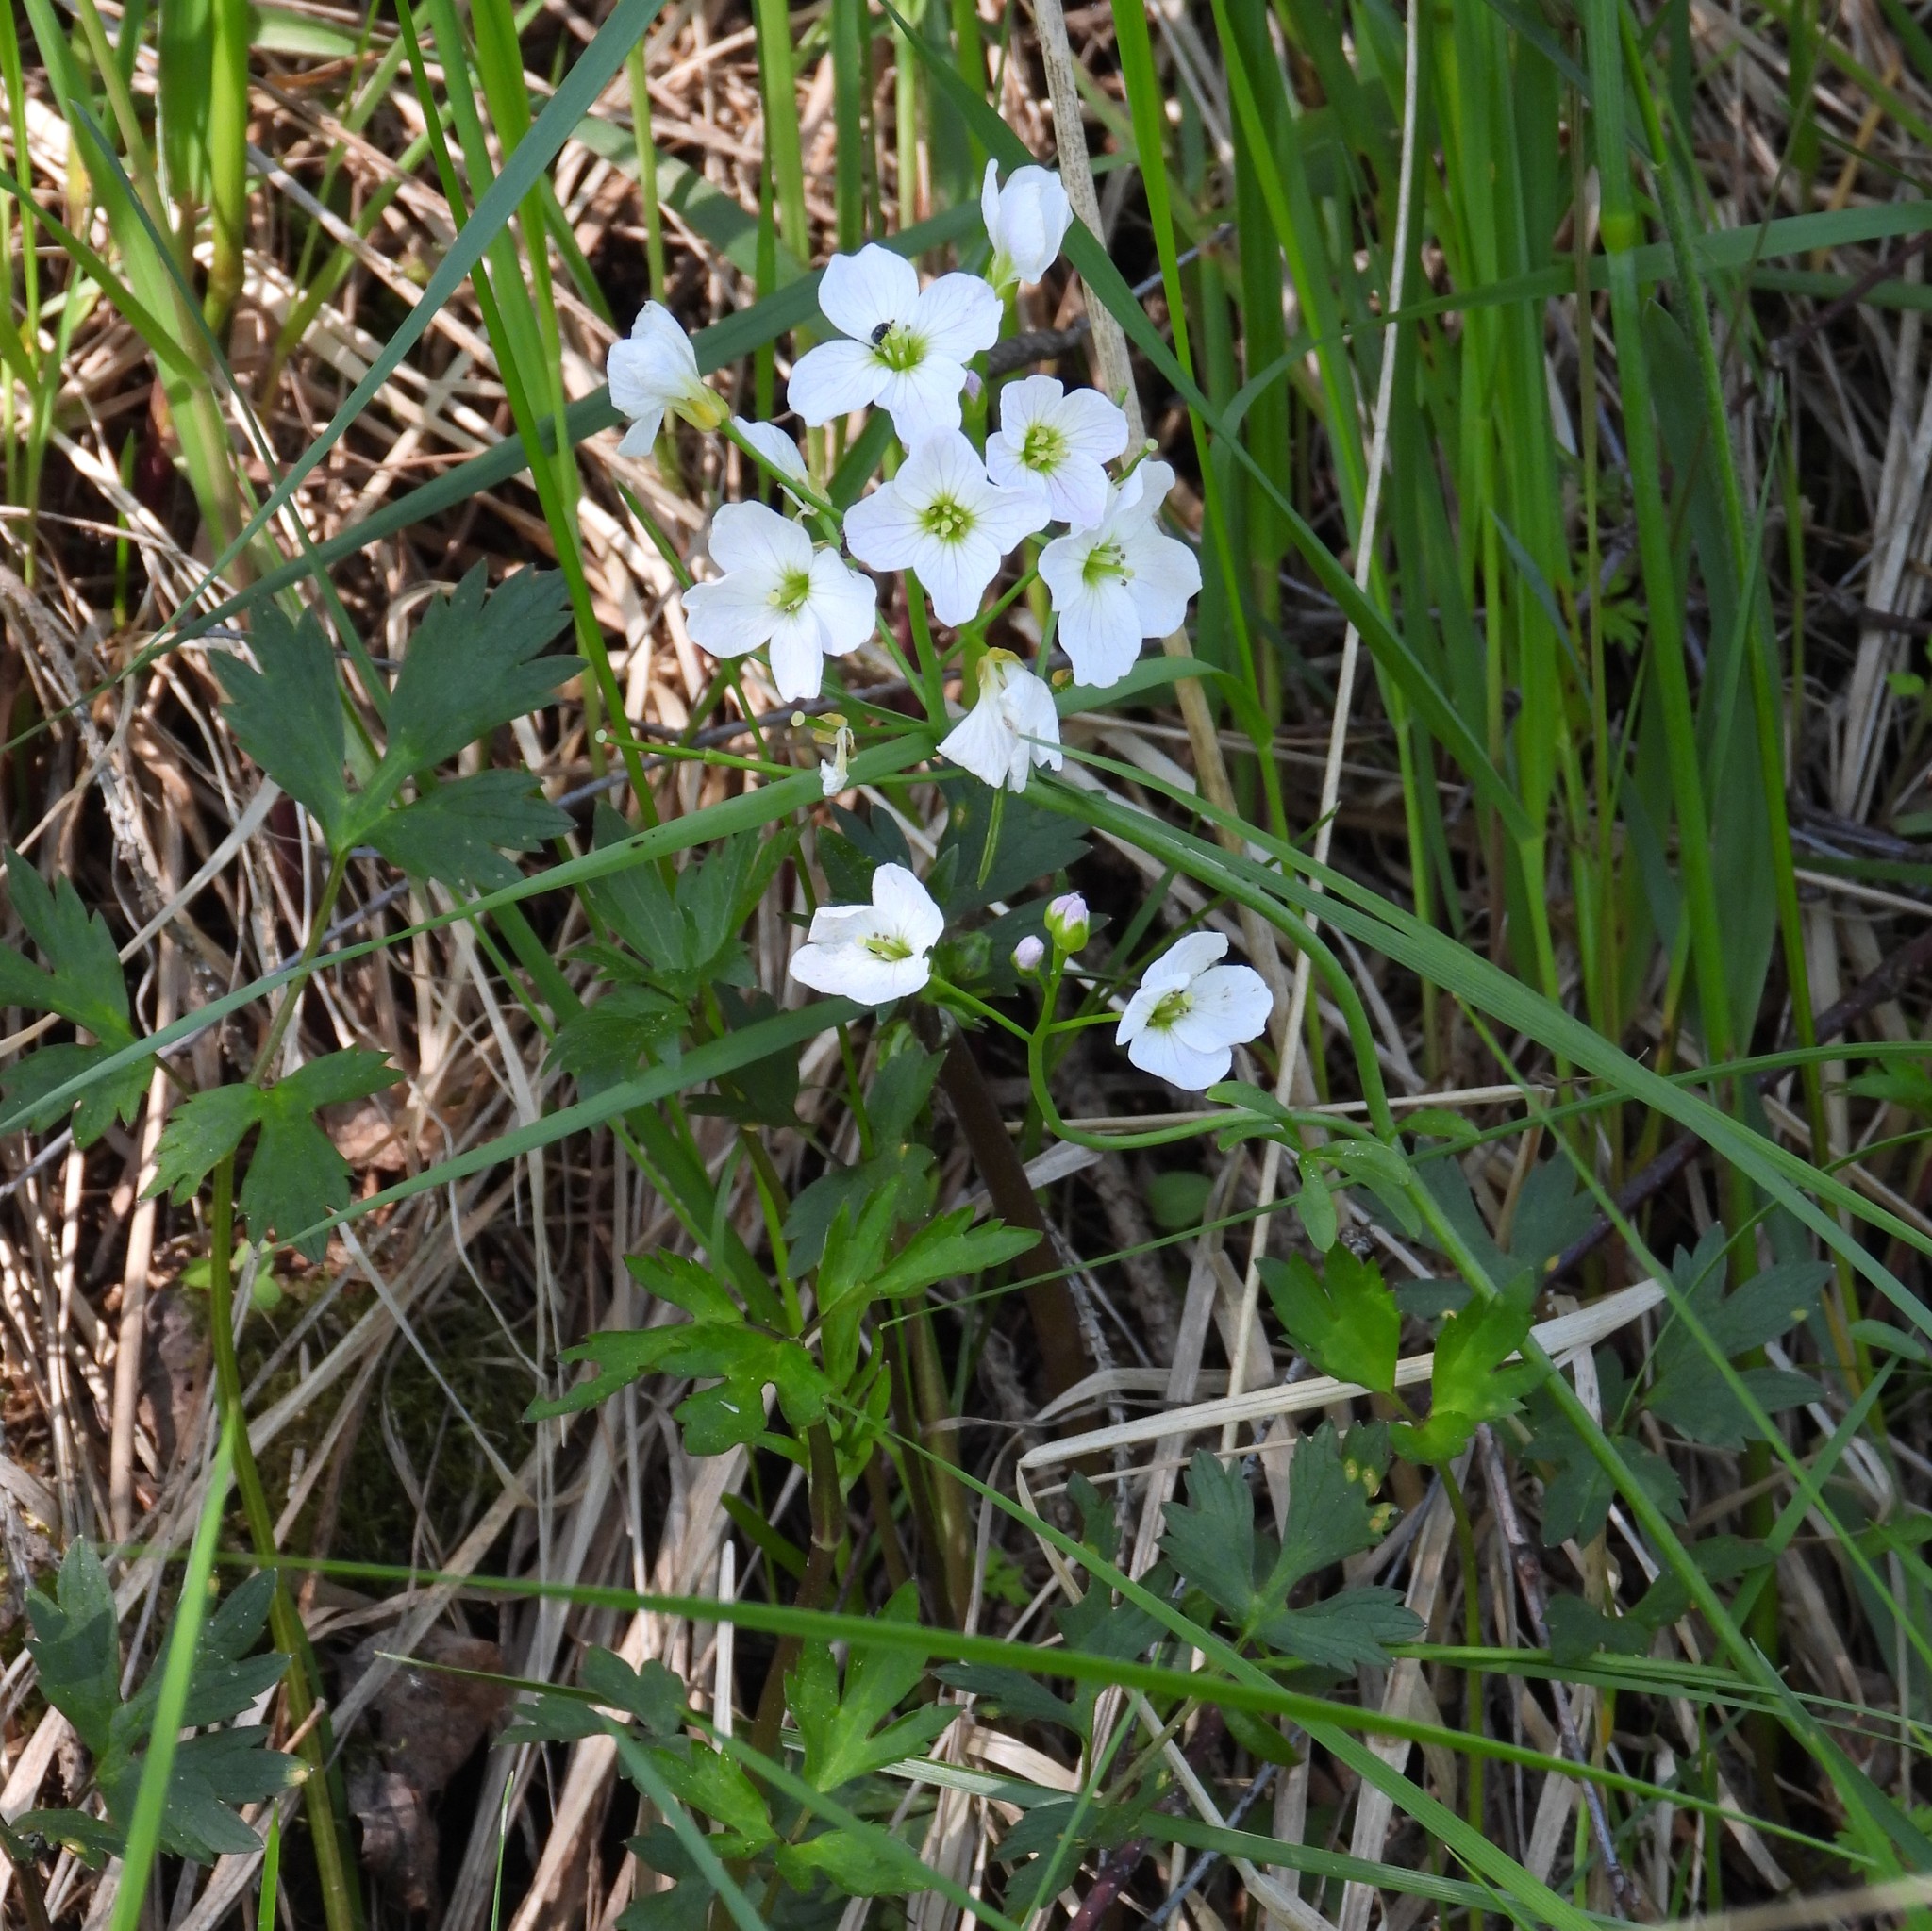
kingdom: Plantae
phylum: Tracheophyta
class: Magnoliopsida
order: Brassicales
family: Brassicaceae
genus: Cardamine
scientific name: Cardamine pratensis
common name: Cuckoo flower
